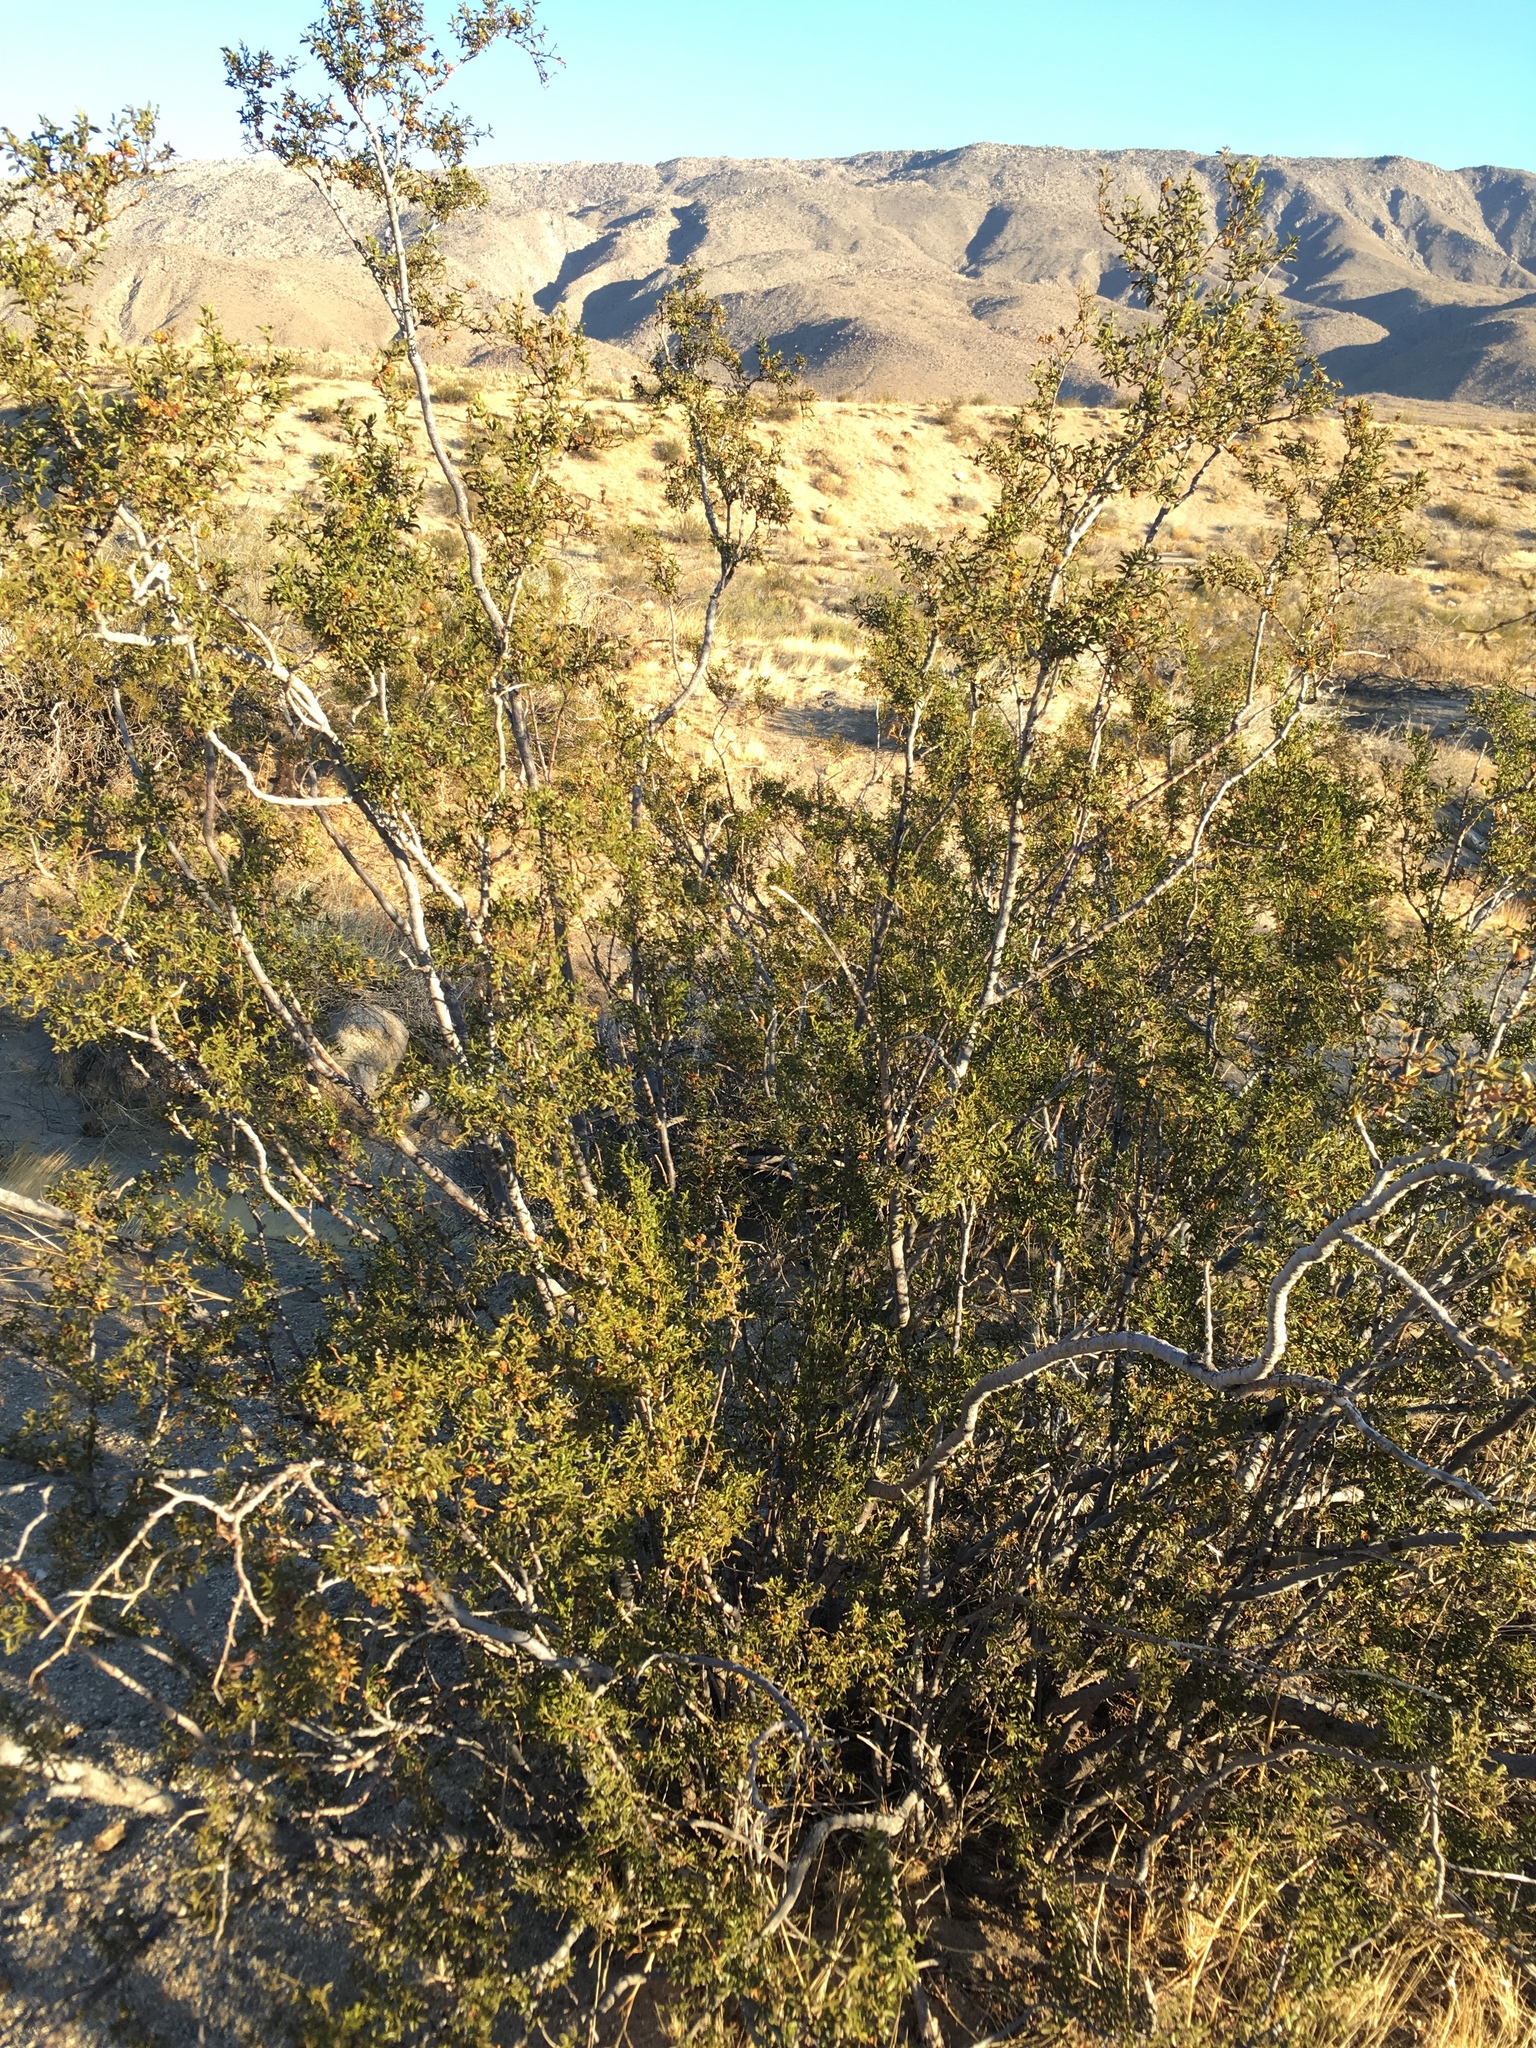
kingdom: Animalia
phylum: Arthropoda
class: Insecta
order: Diptera
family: Cecidomyiidae
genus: Asphondylia
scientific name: Asphondylia auripila
